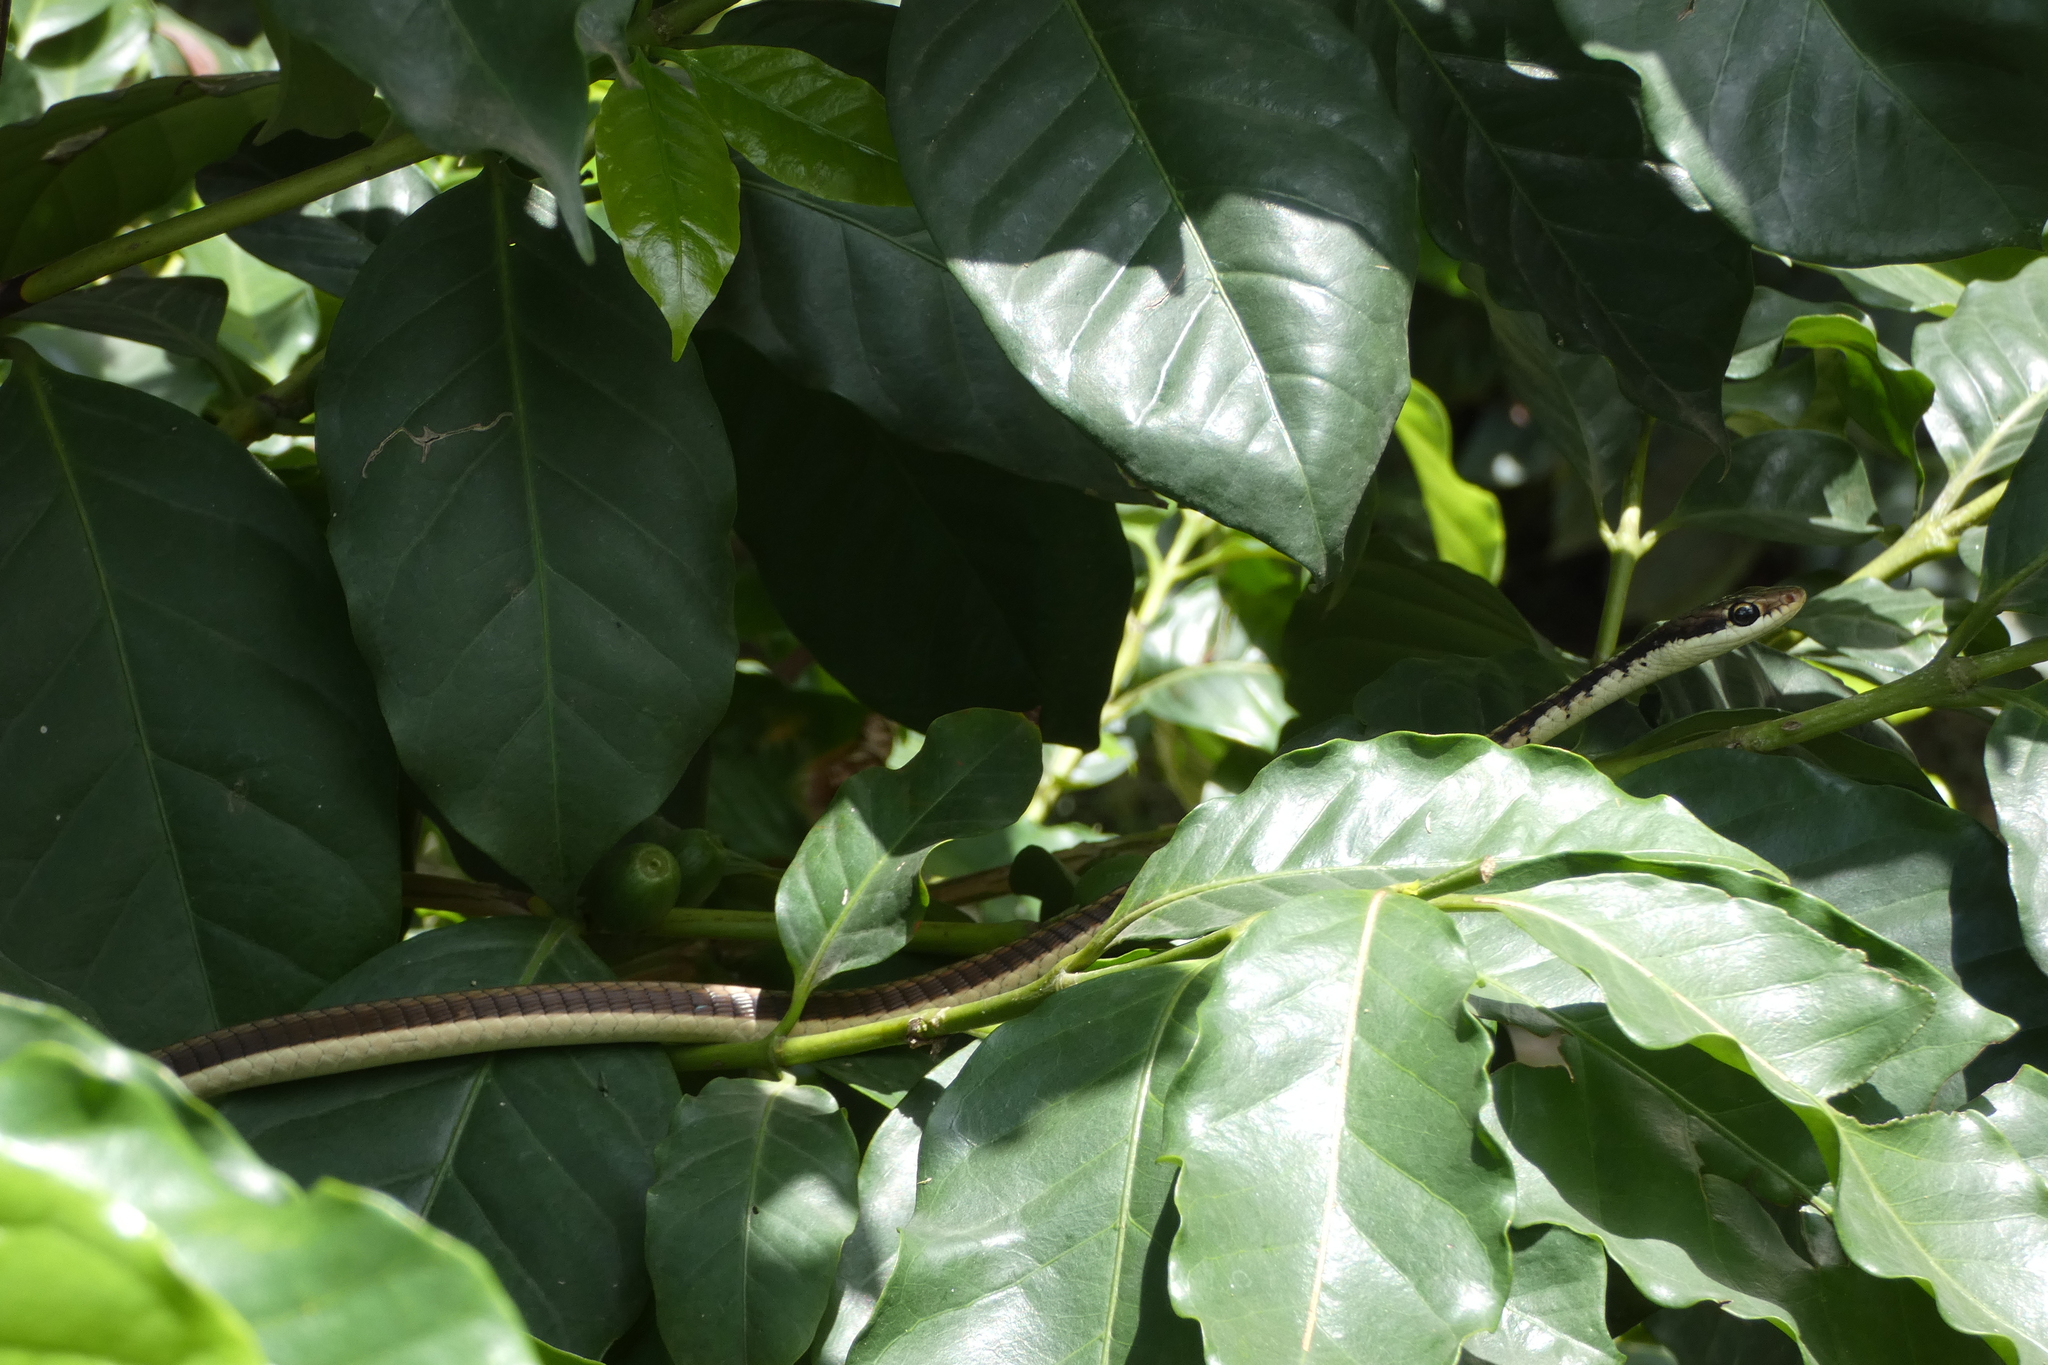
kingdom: Animalia
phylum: Chordata
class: Squamata
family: Colubridae
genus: Dendrelaphis
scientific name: Dendrelaphis tristis
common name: Daudin's bronzeback
